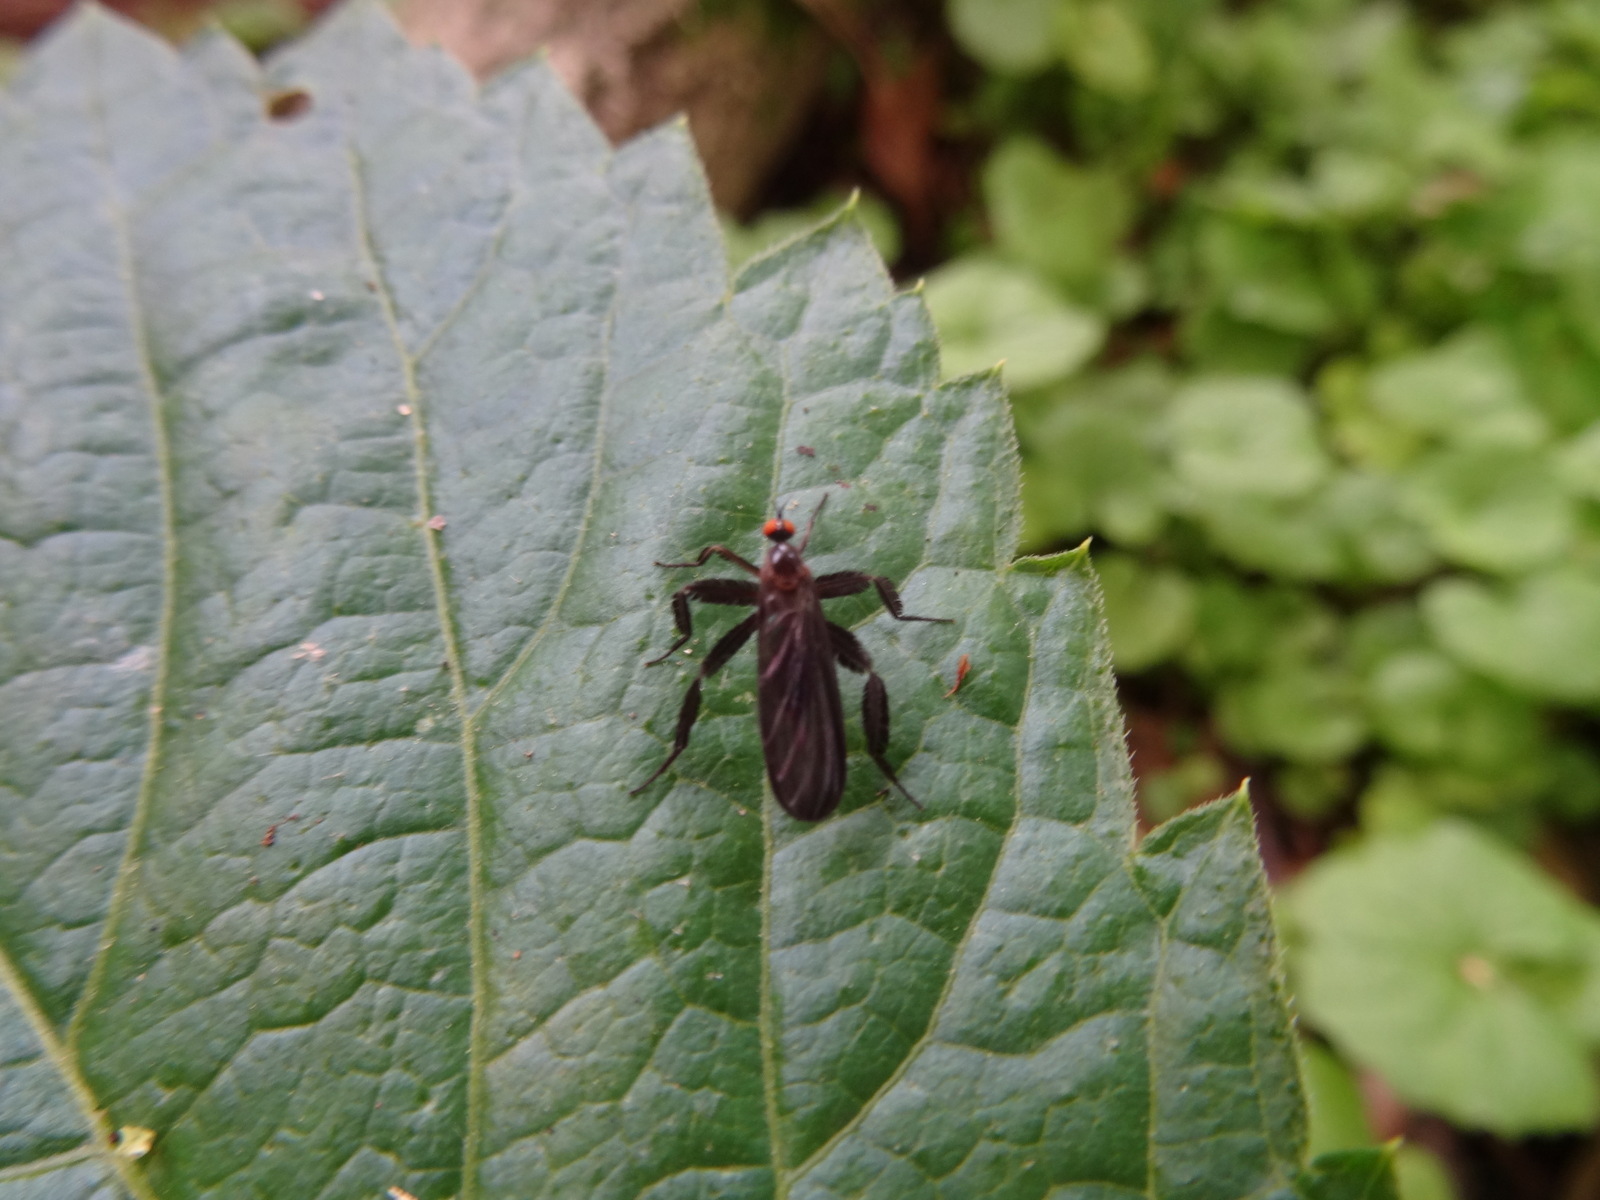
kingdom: Animalia
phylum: Arthropoda
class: Insecta
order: Diptera
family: Empididae
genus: Rhamphomyia
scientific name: Rhamphomyia longicauda
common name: Long-tailed dance fly
